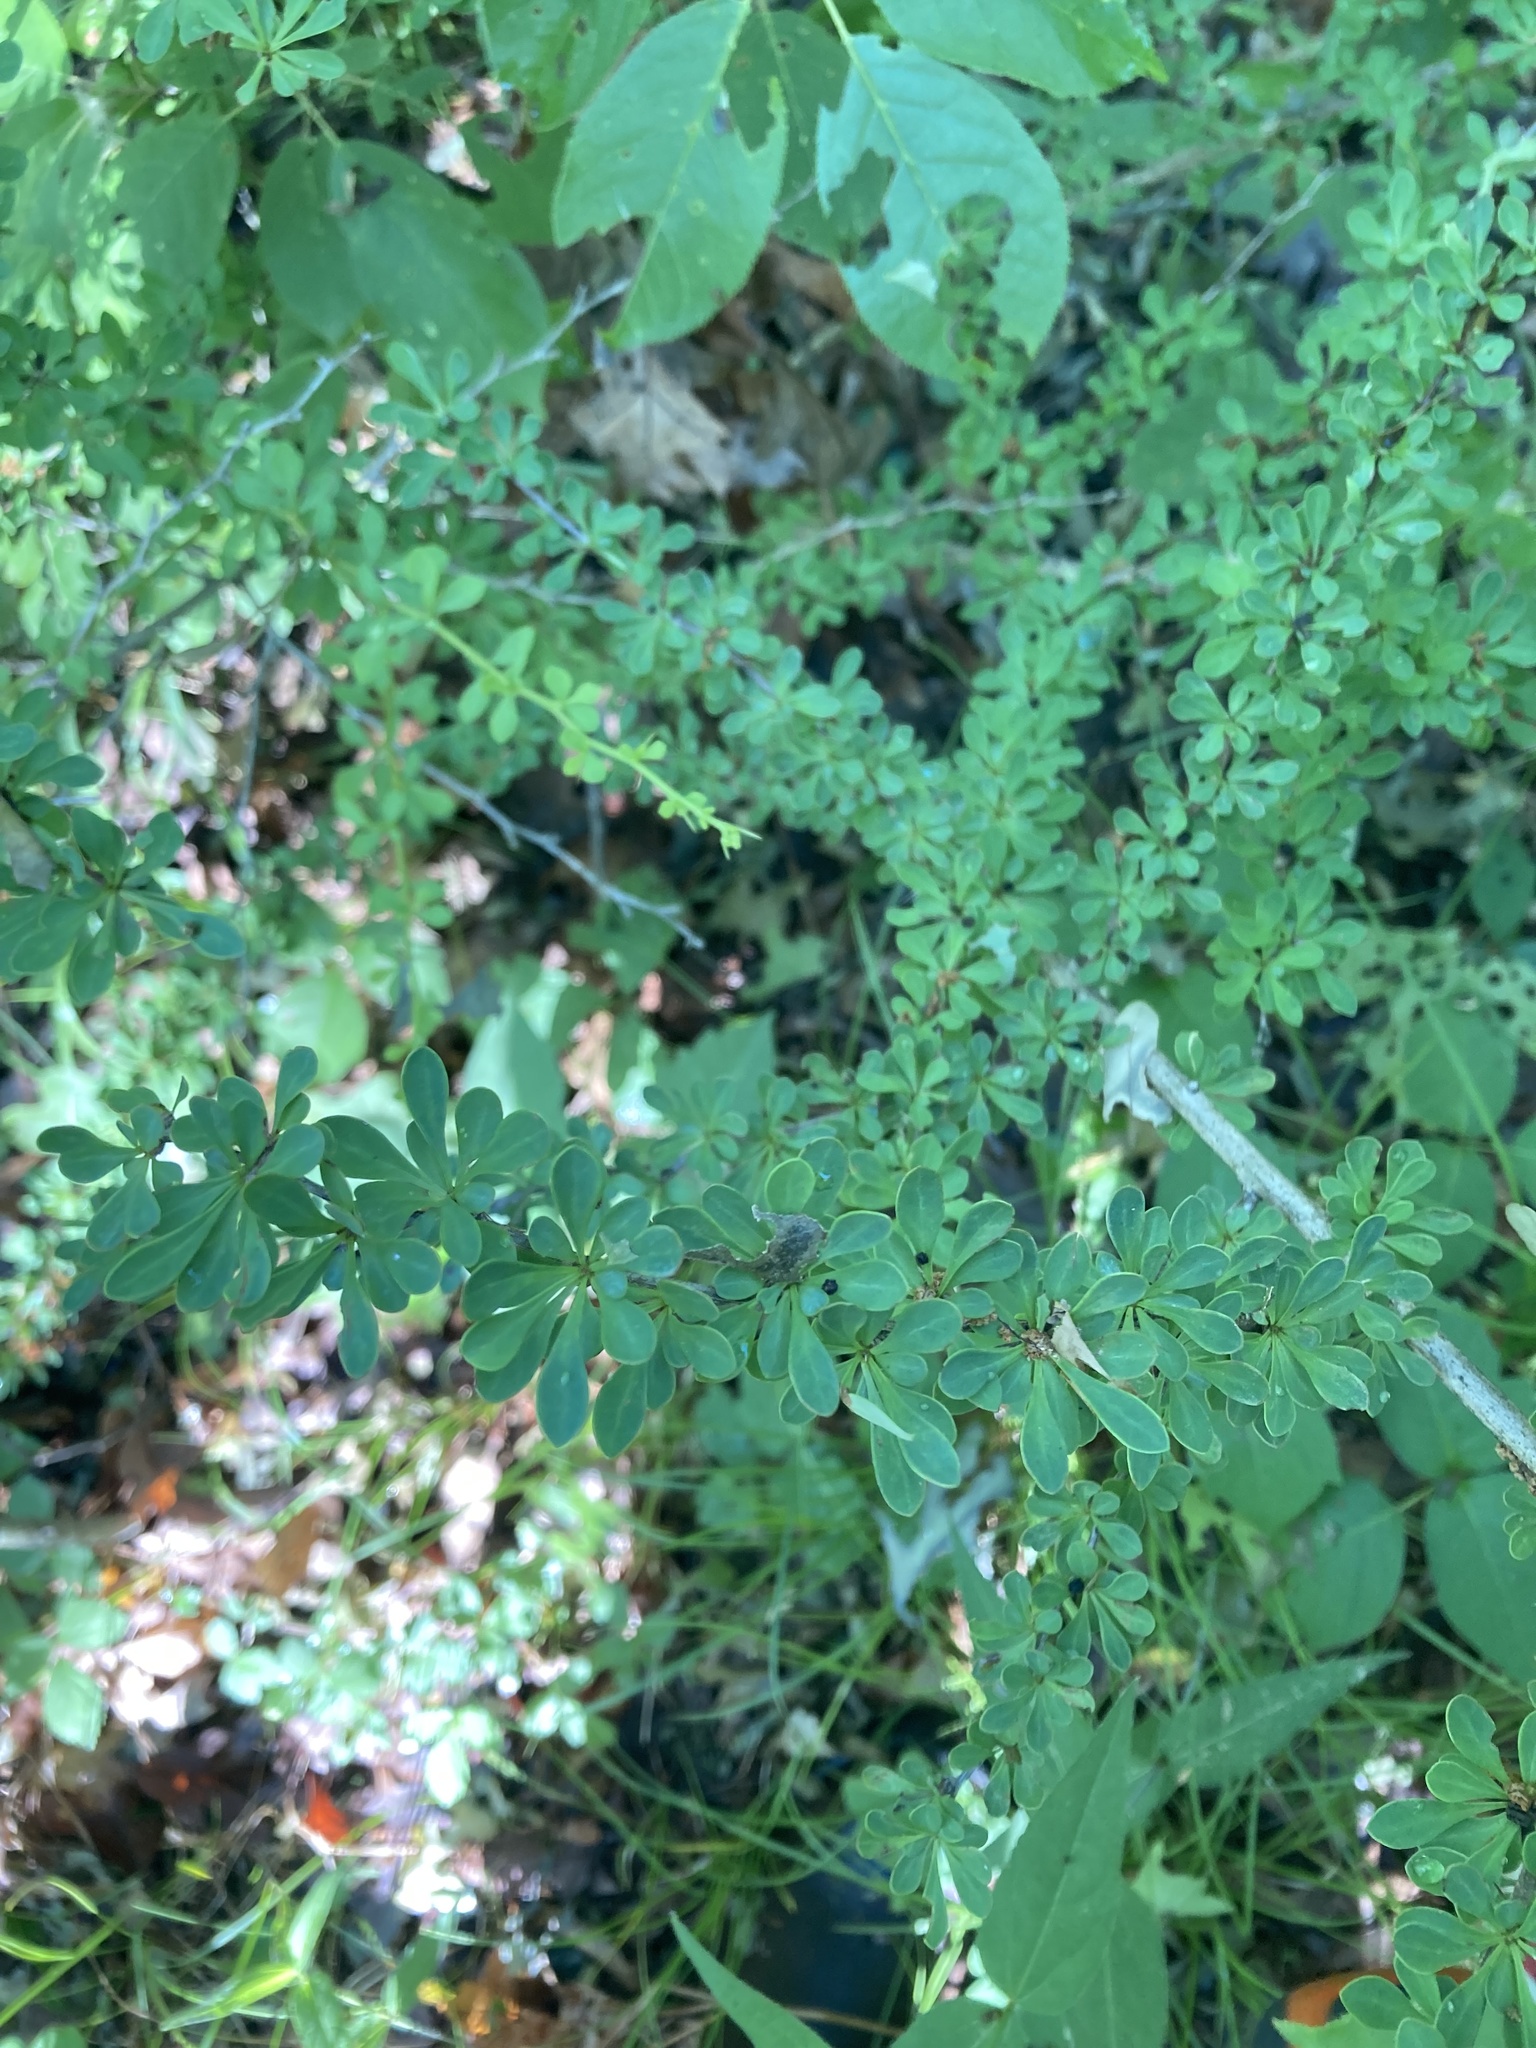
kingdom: Plantae
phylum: Tracheophyta
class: Magnoliopsida
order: Ranunculales
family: Berberidaceae
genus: Berberis
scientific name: Berberis thunbergii
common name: Japanese barberry
